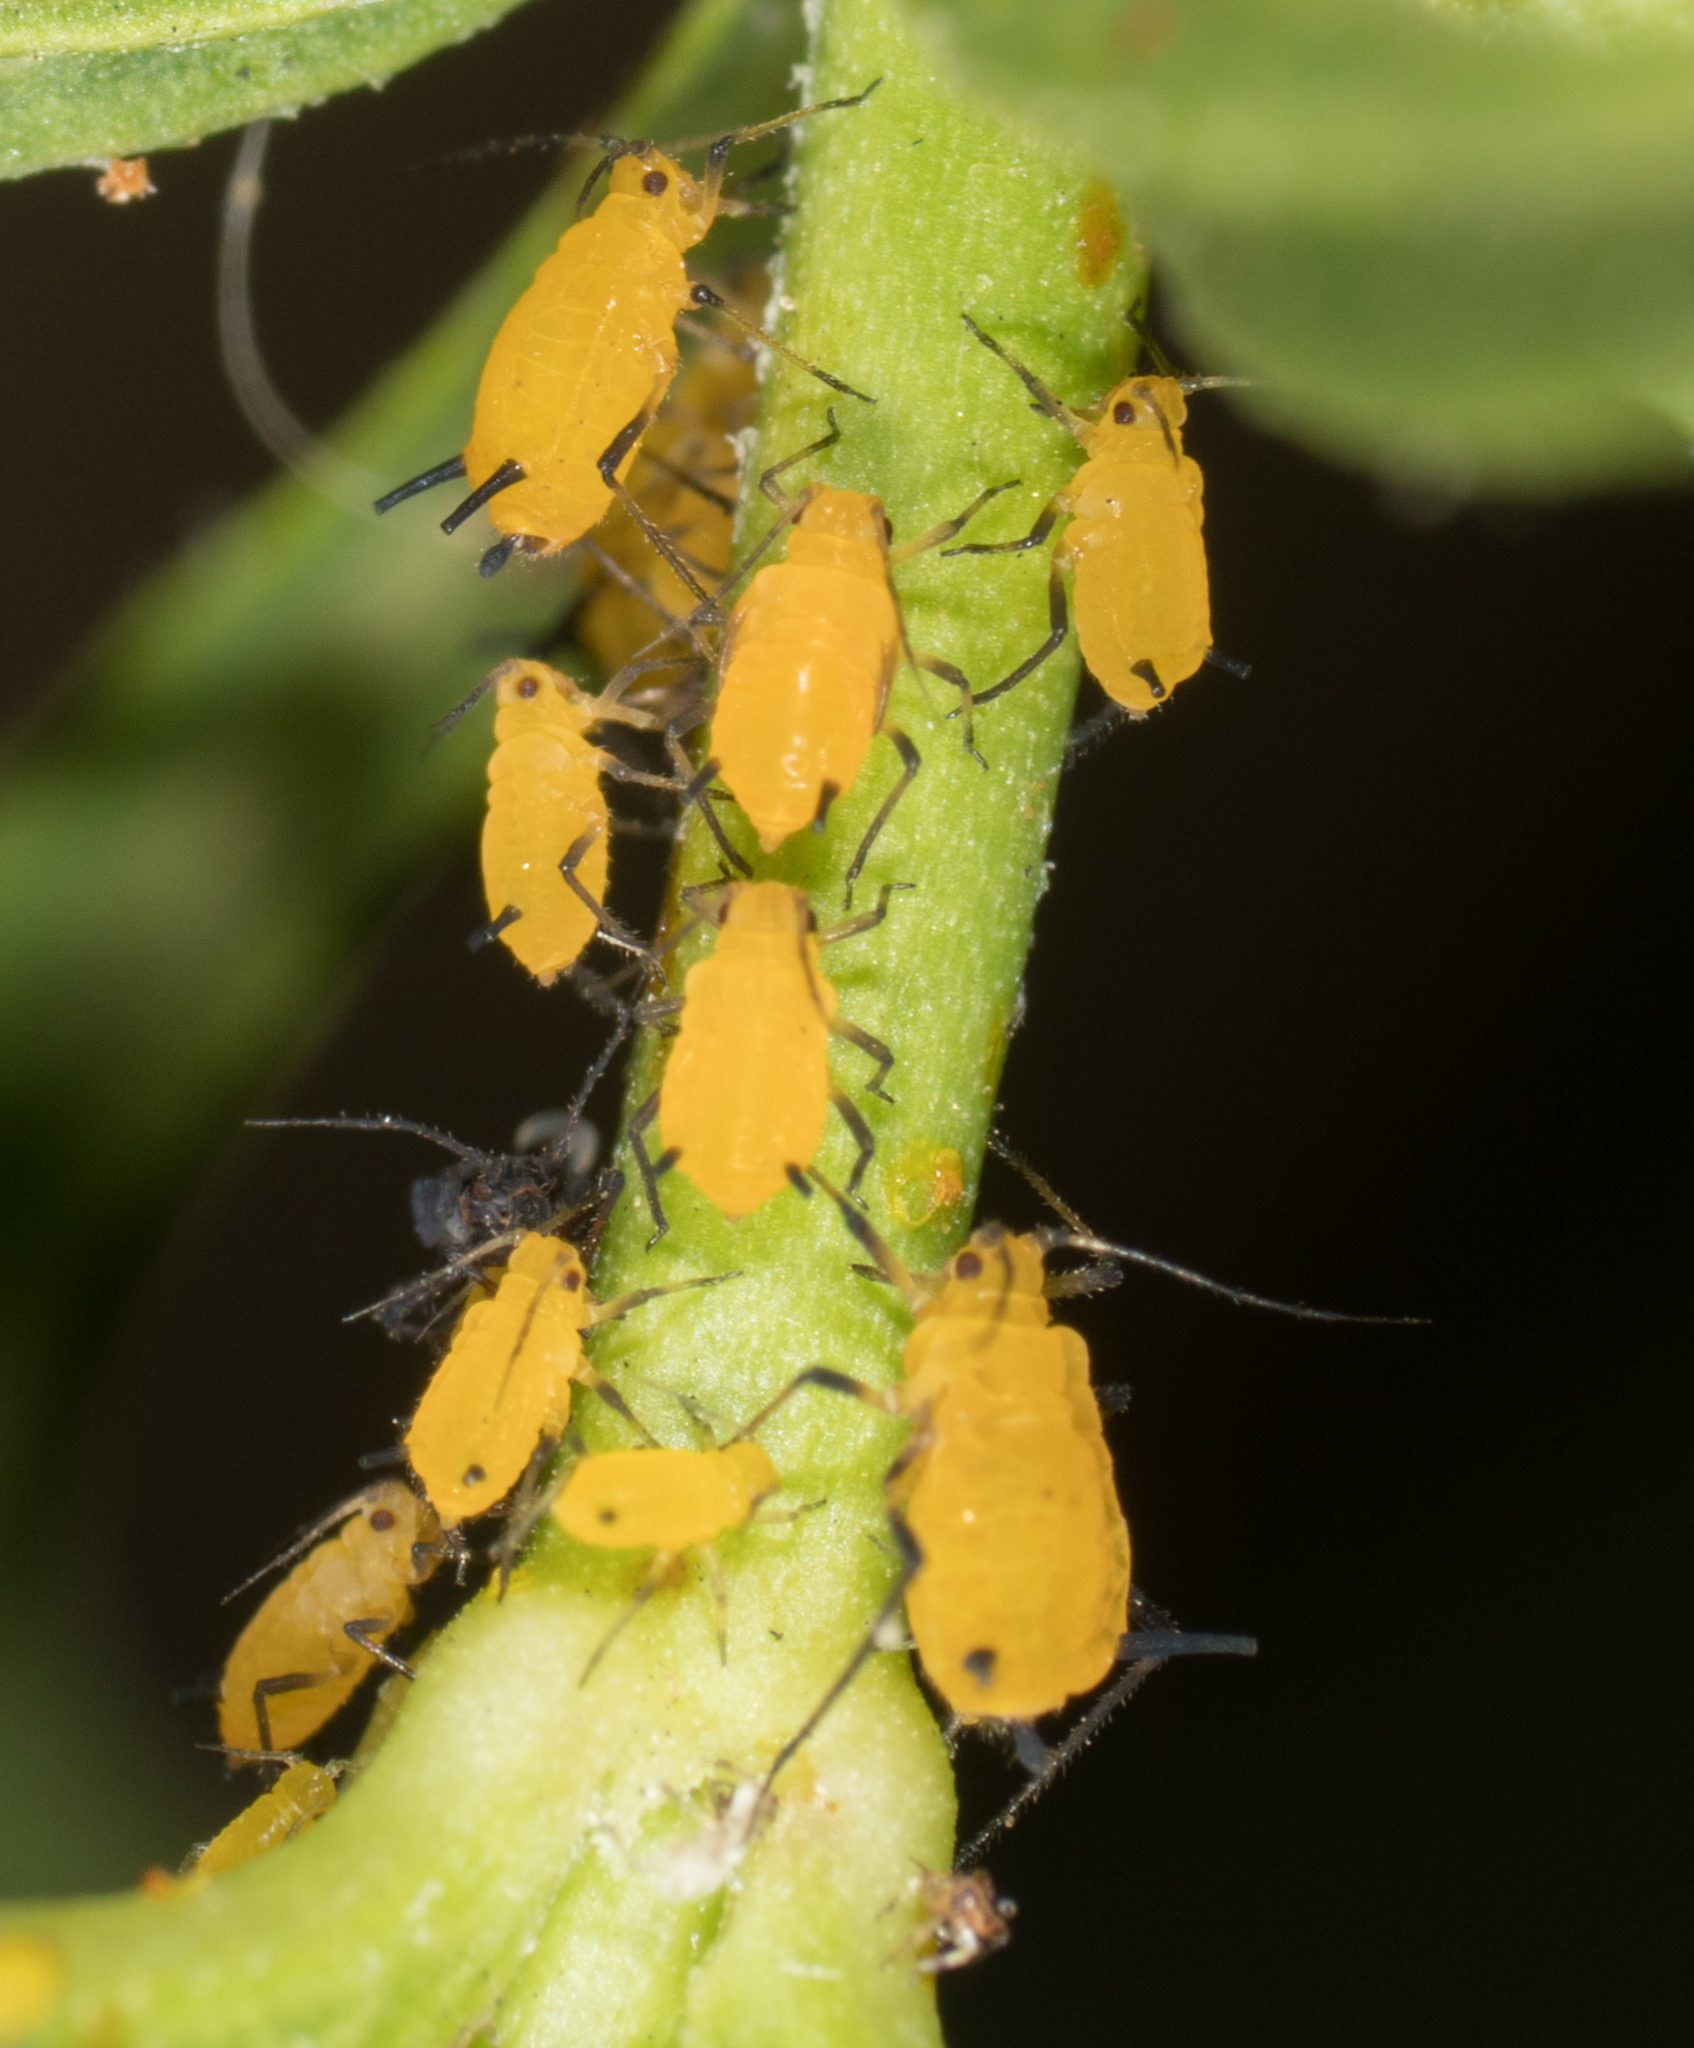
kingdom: Animalia
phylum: Arthropoda
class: Insecta
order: Hemiptera
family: Aphididae
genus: Aphis
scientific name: Aphis nerii
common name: Oleander aphid
